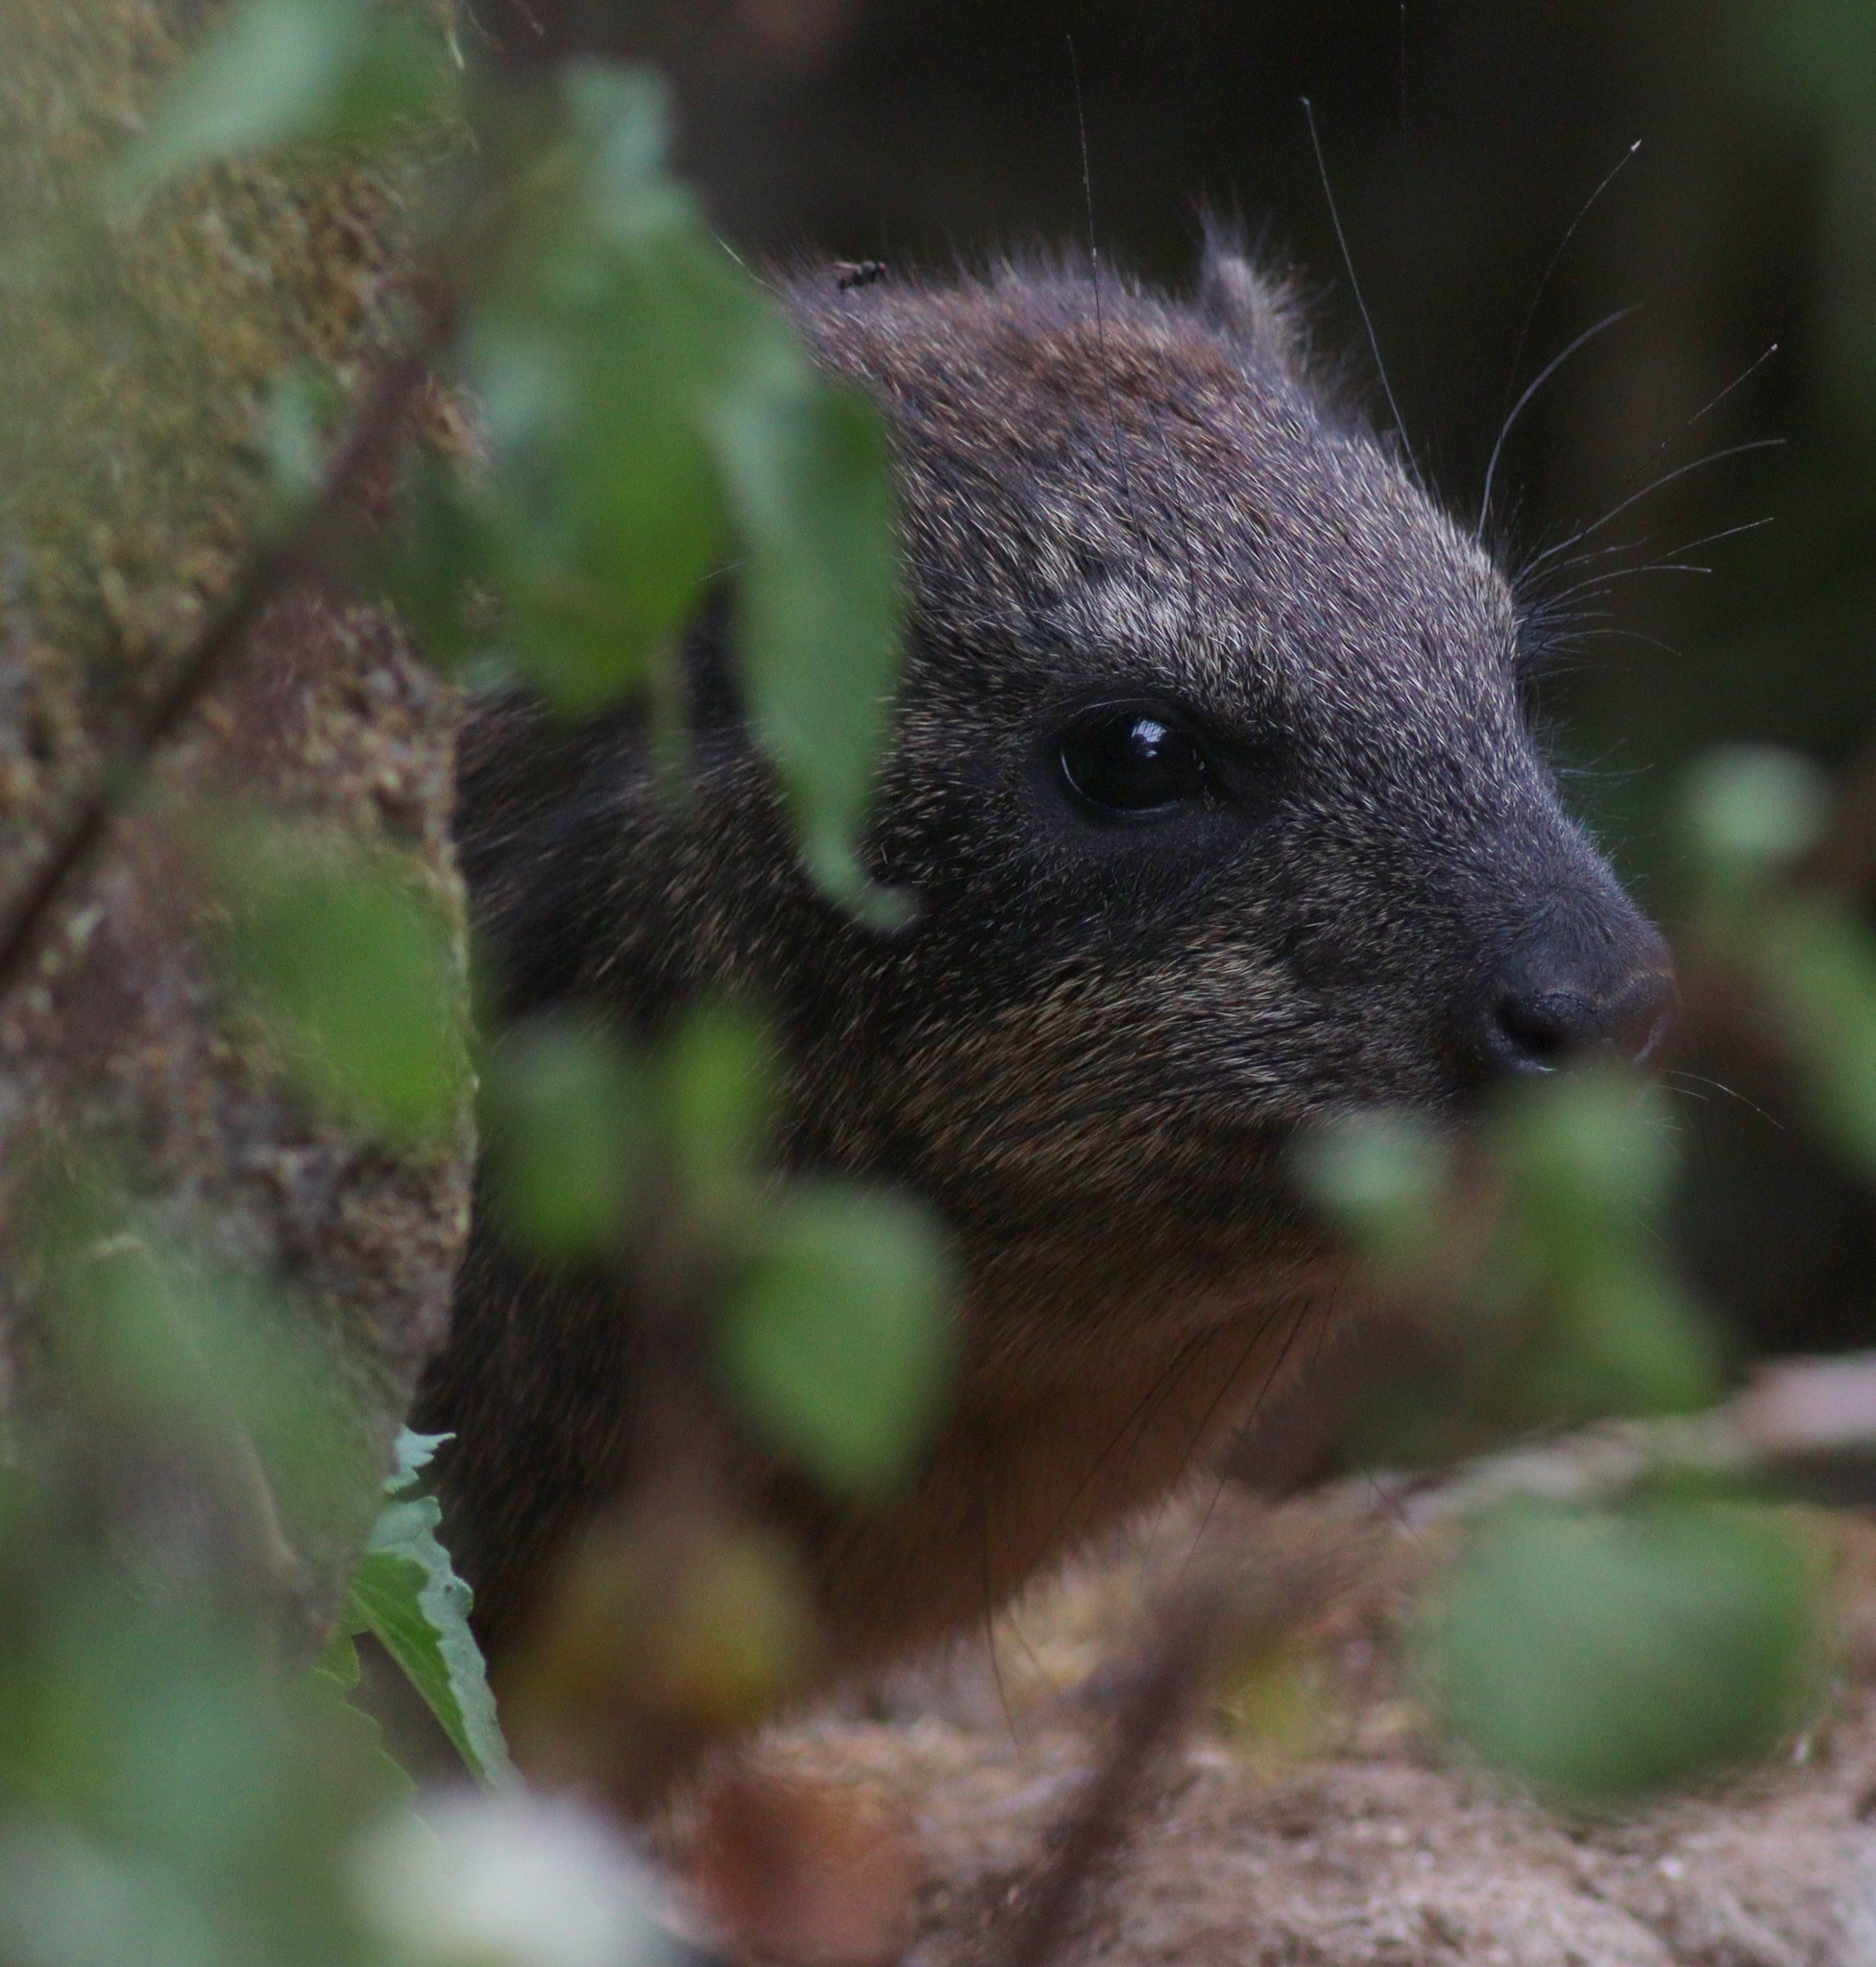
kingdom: Animalia
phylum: Chordata
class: Mammalia
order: Hyracoidea
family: Procaviidae
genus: Procavia
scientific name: Procavia capensis
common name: Rock hyrax
